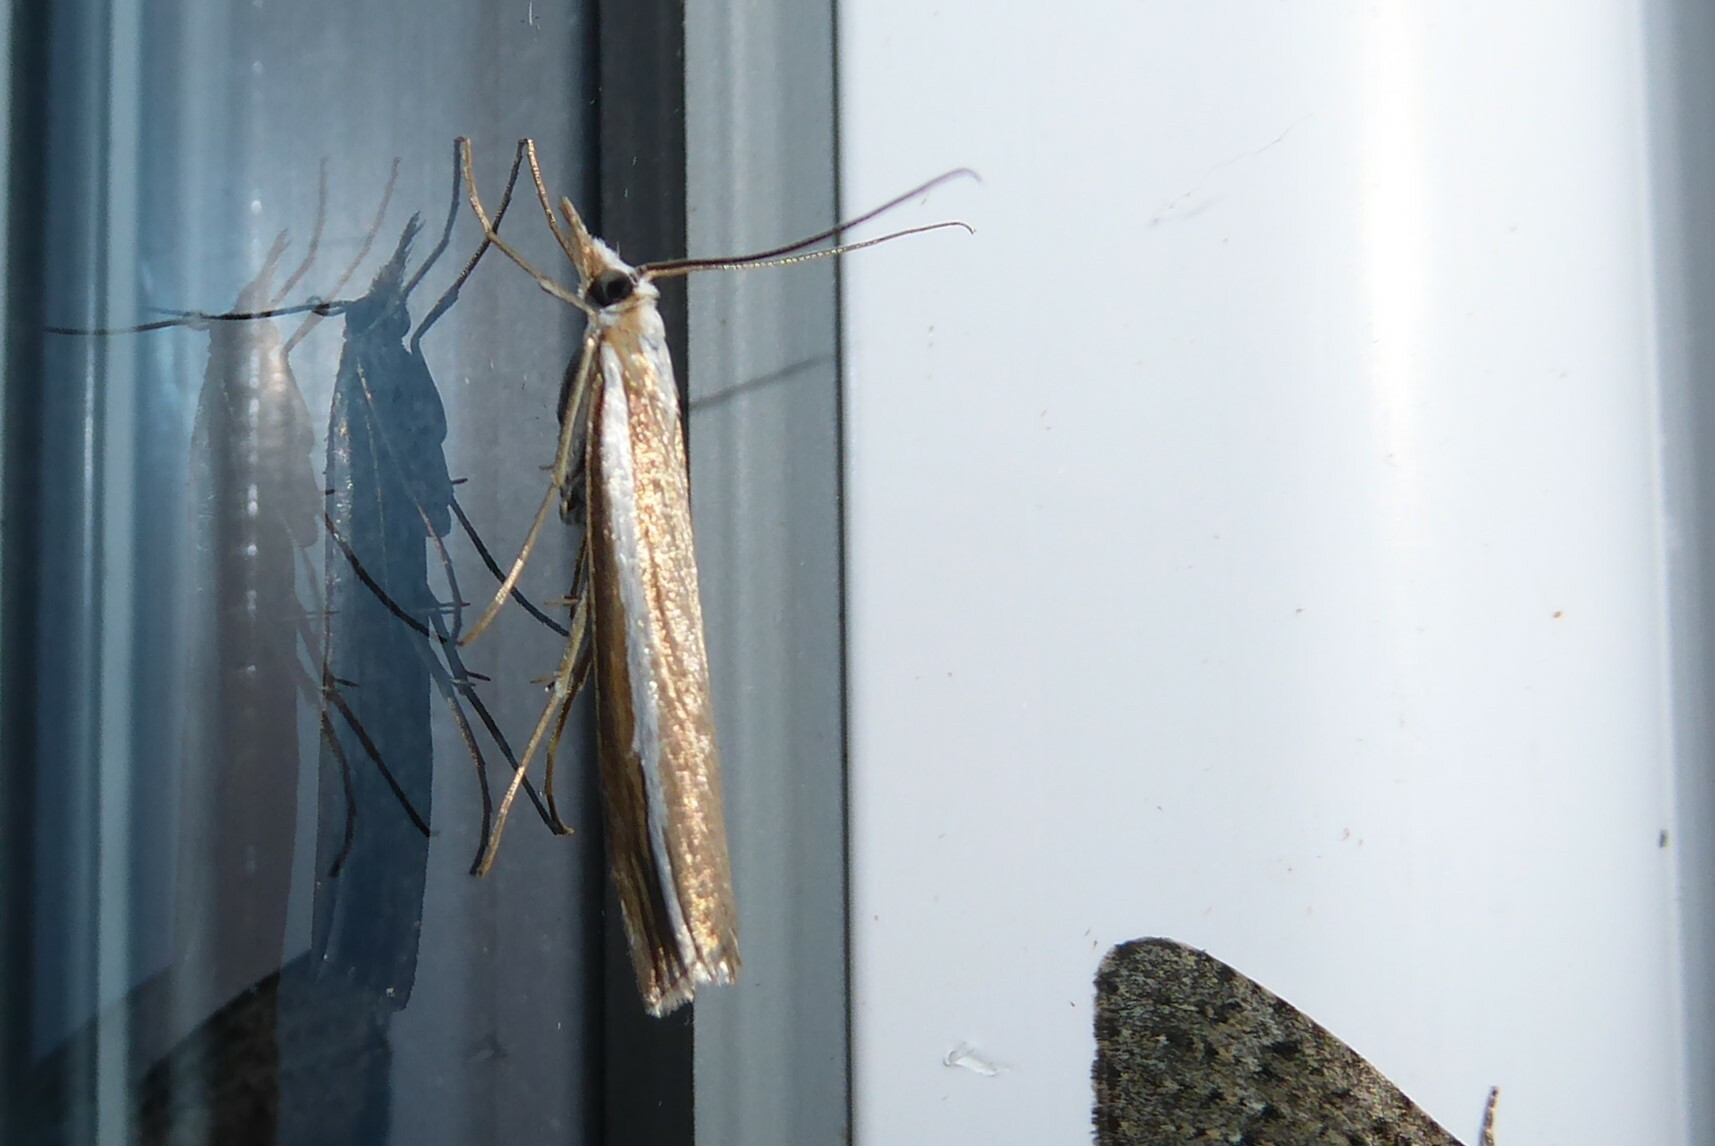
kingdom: Animalia
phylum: Arthropoda
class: Insecta
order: Lepidoptera
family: Crambidae
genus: Orocrambus
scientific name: Orocrambus vittellus
